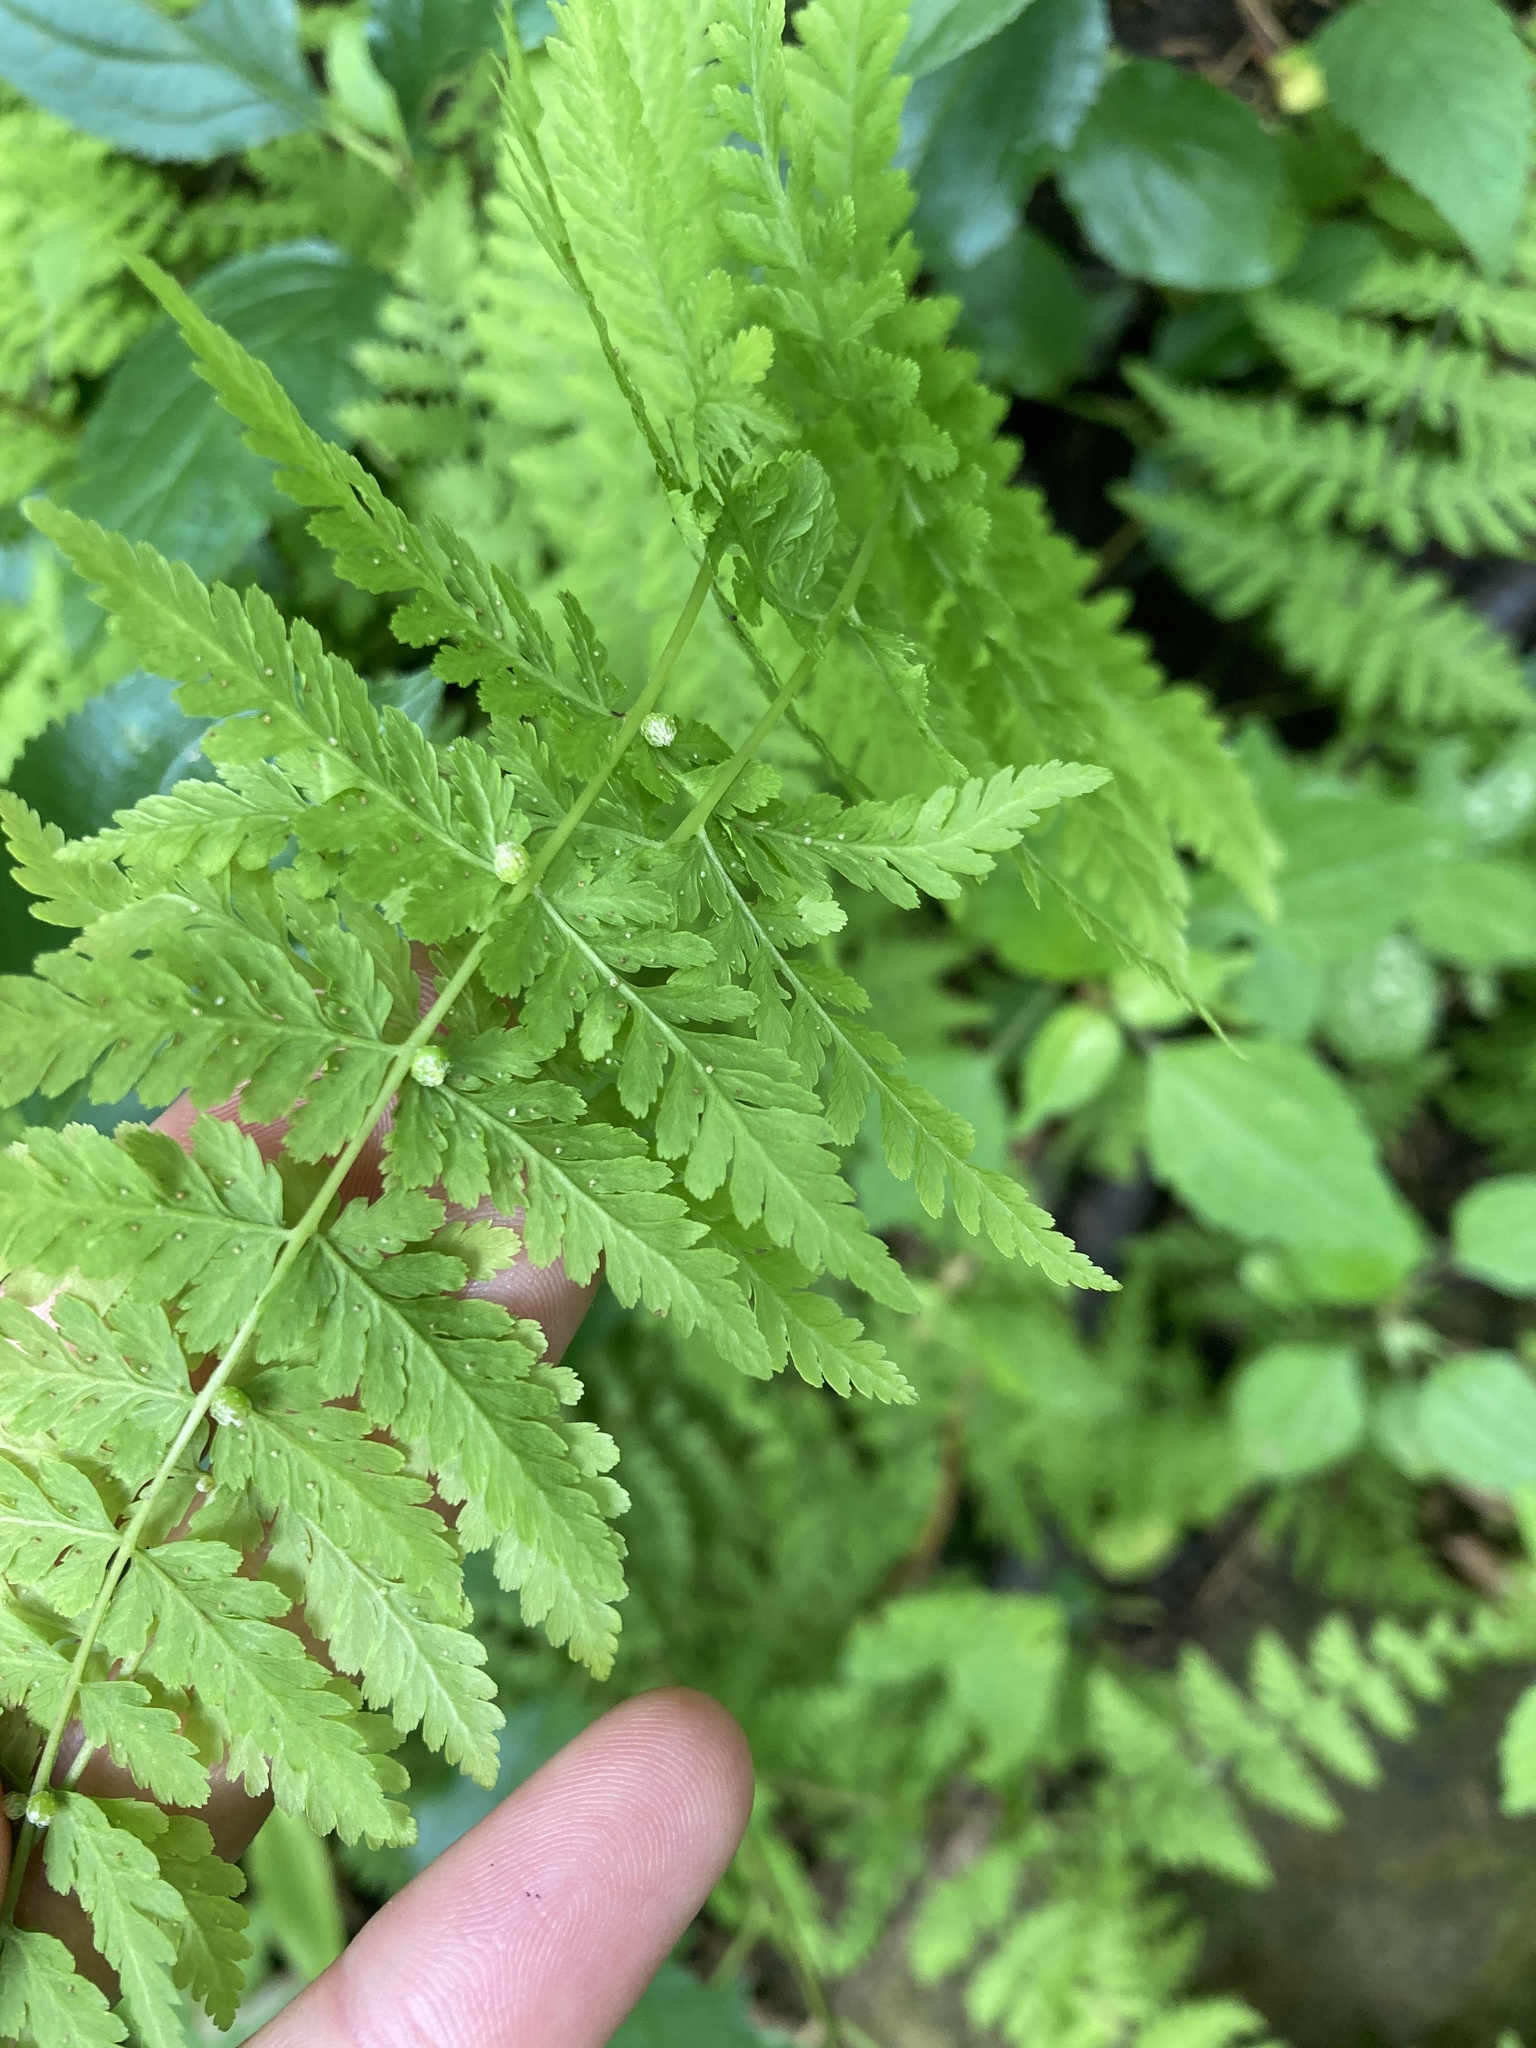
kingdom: Plantae
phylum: Tracheophyta
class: Polypodiopsida
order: Polypodiales
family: Cystopteridaceae
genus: Cystopteris
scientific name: Cystopteris bulbifera
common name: Bulblet bladder fern
